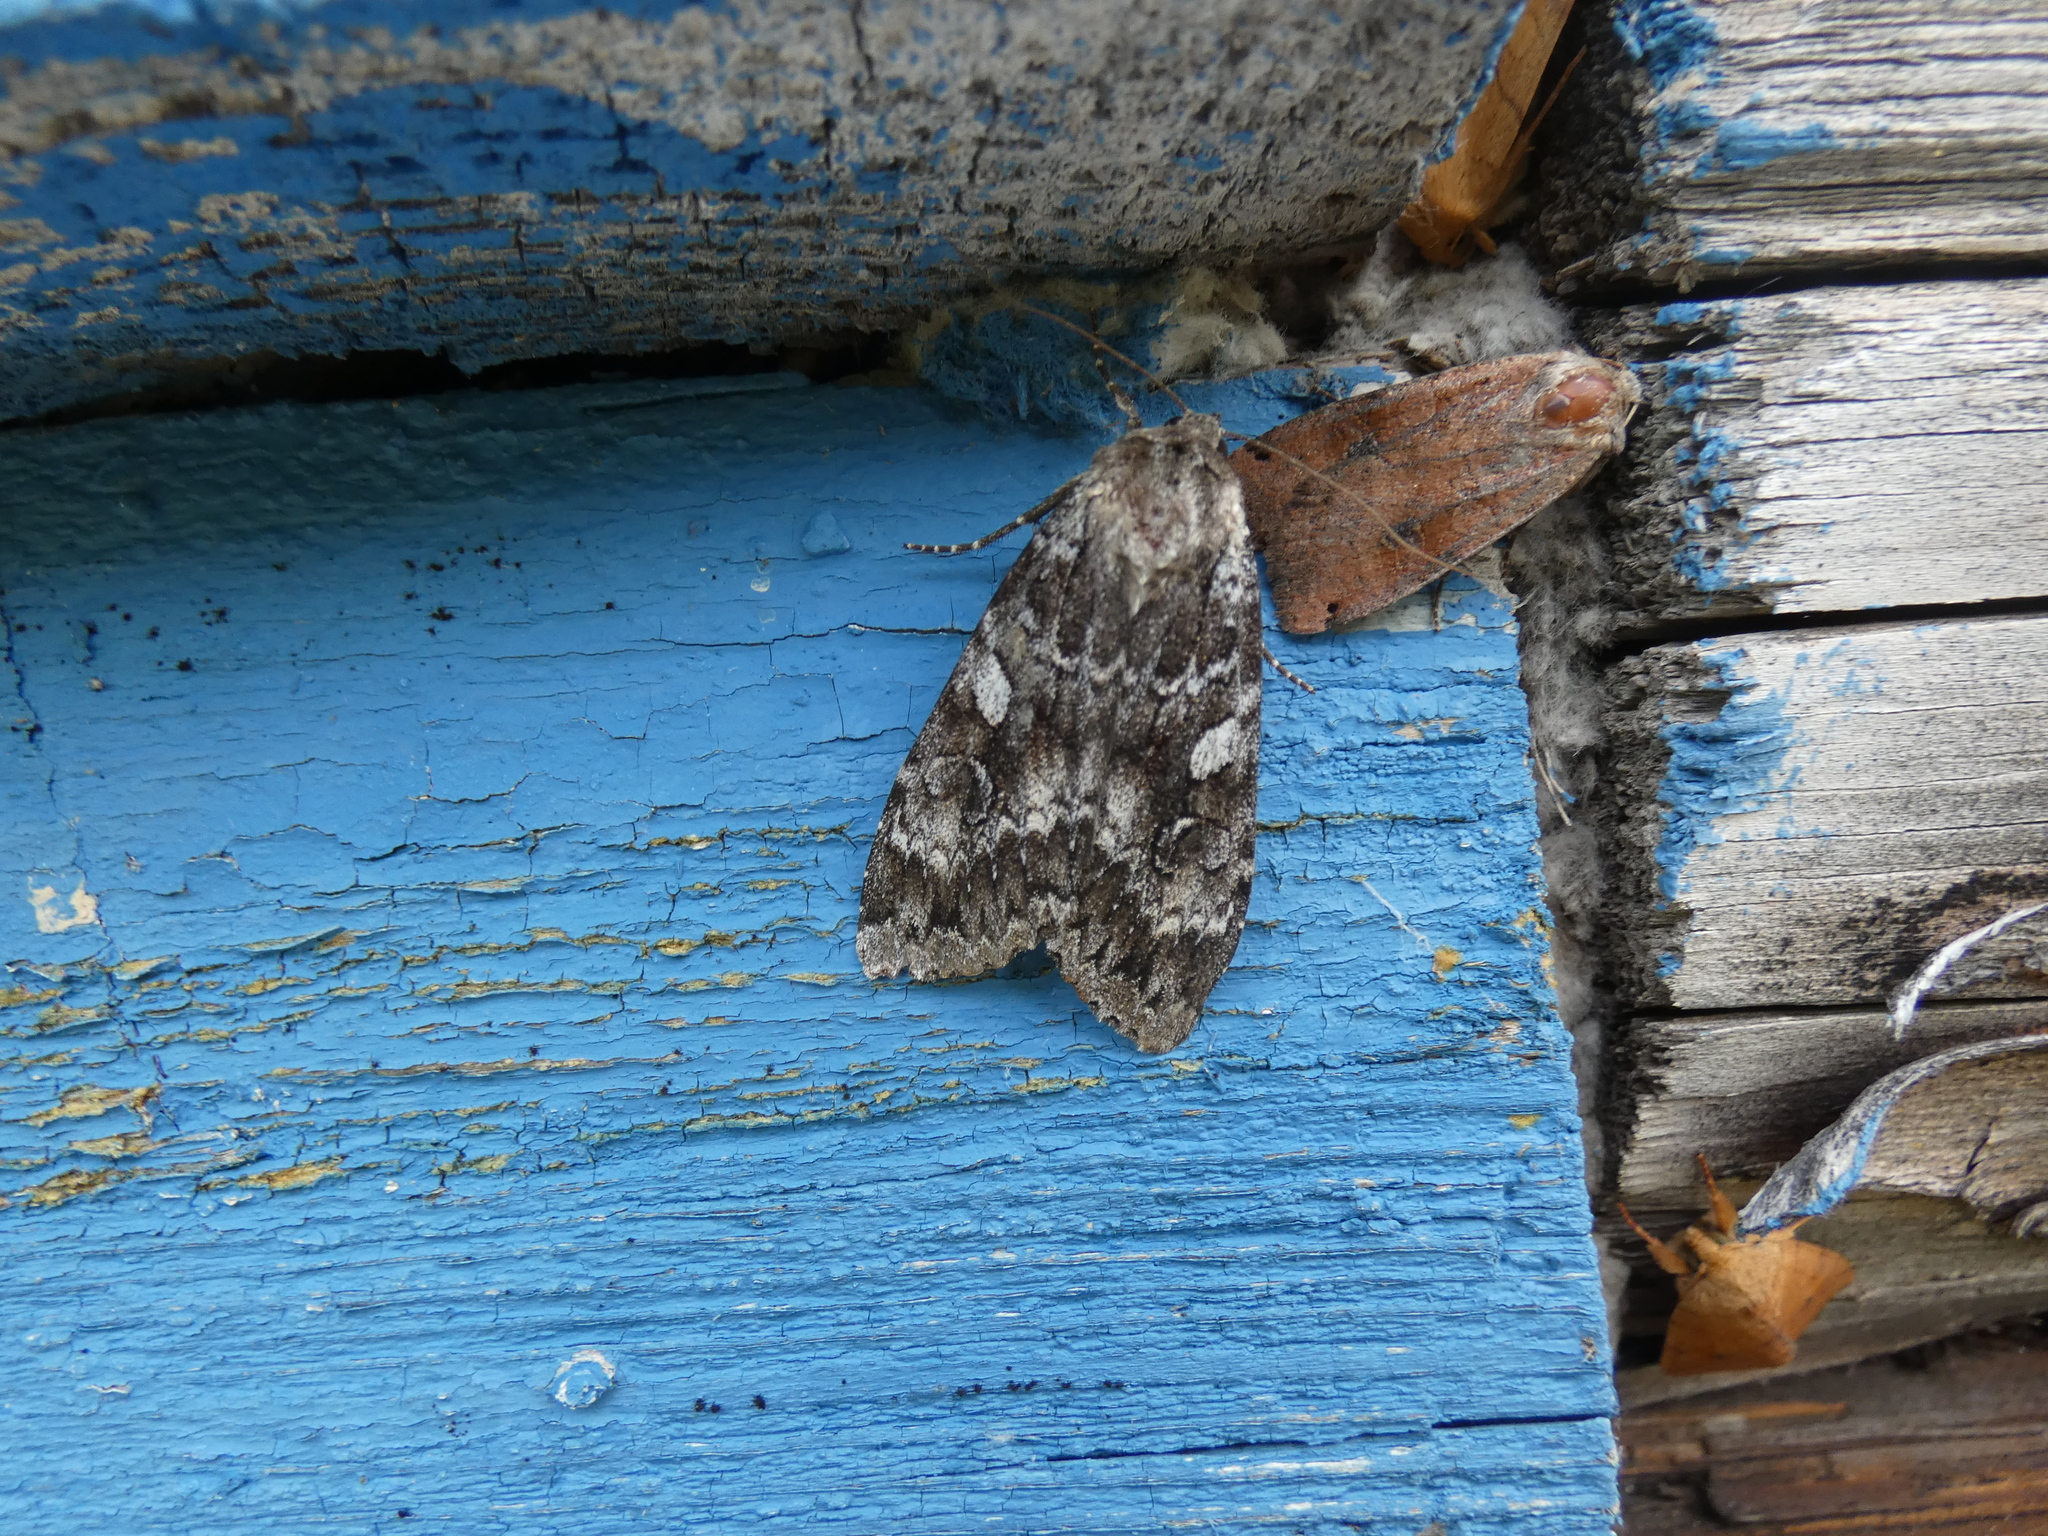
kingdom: Animalia
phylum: Arthropoda
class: Insecta
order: Lepidoptera
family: Noctuidae
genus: Eurois
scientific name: Eurois occulta
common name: Great brocade
